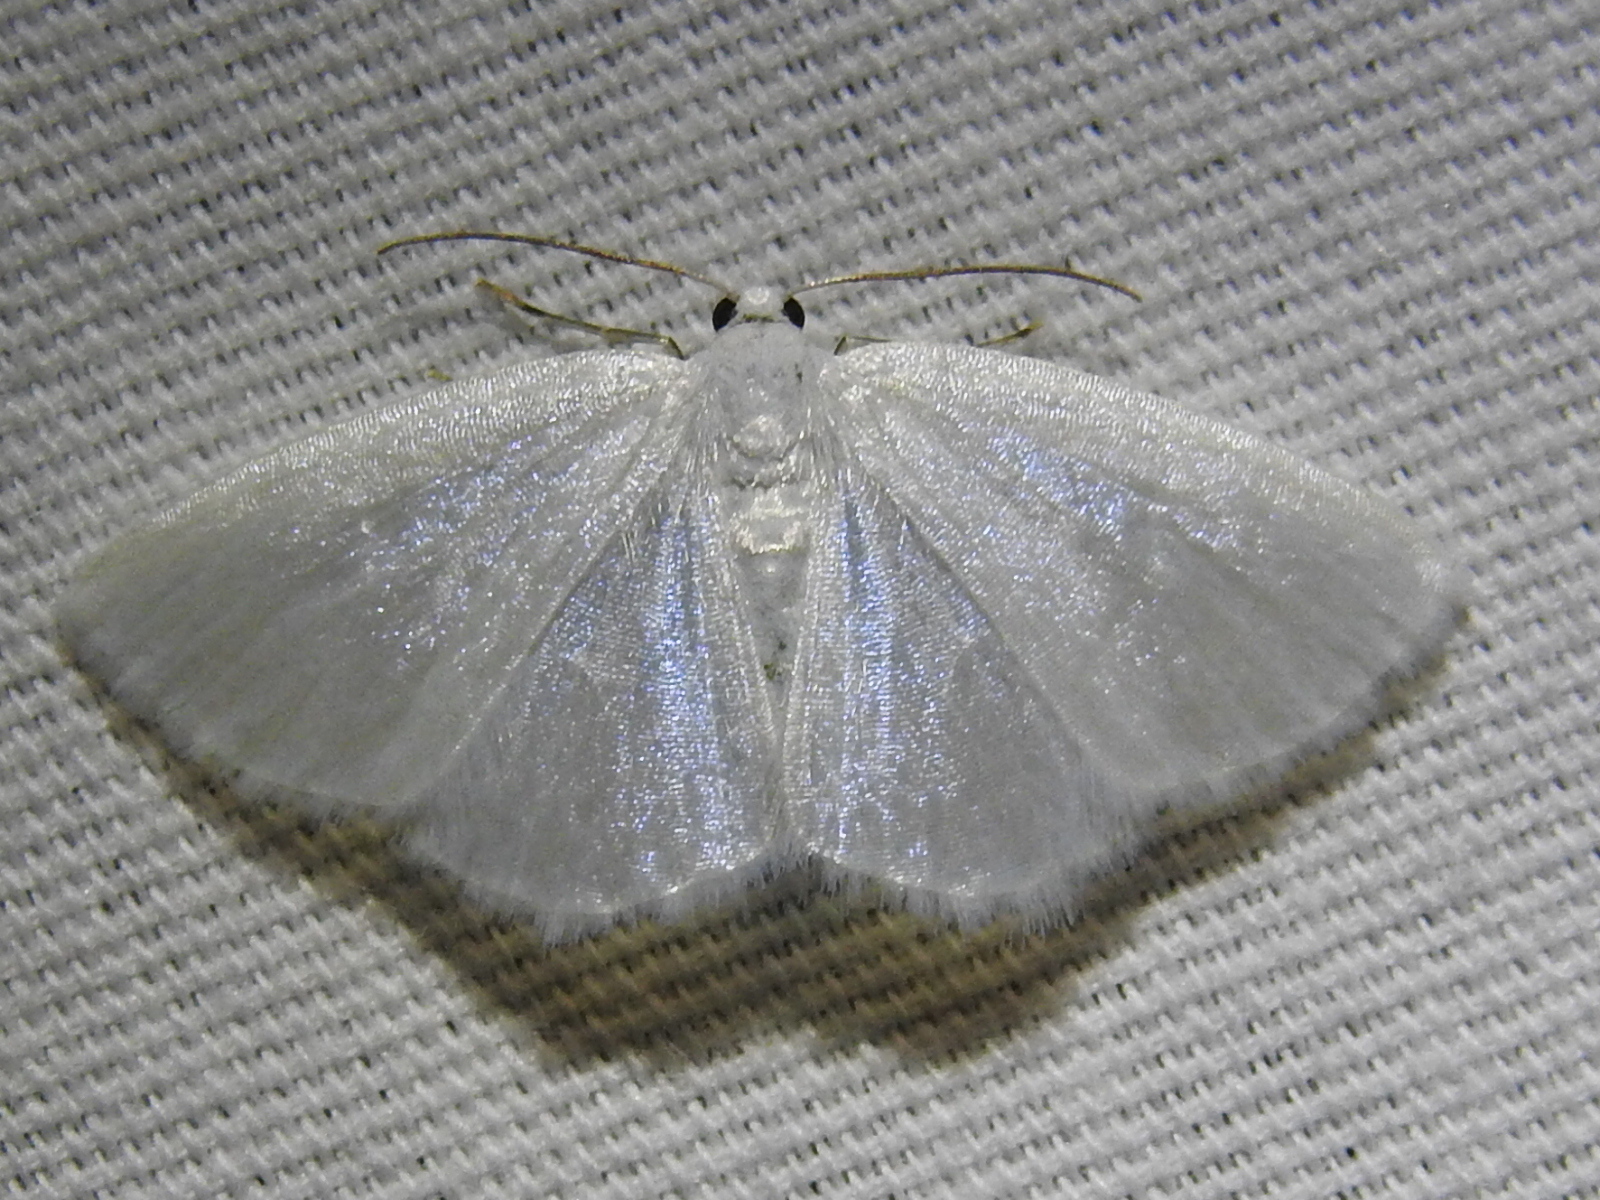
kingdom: Animalia
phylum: Arthropoda
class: Insecta
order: Lepidoptera
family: Geometridae
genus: Lomographa
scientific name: Lomographa vestaliata
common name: White spring moth
